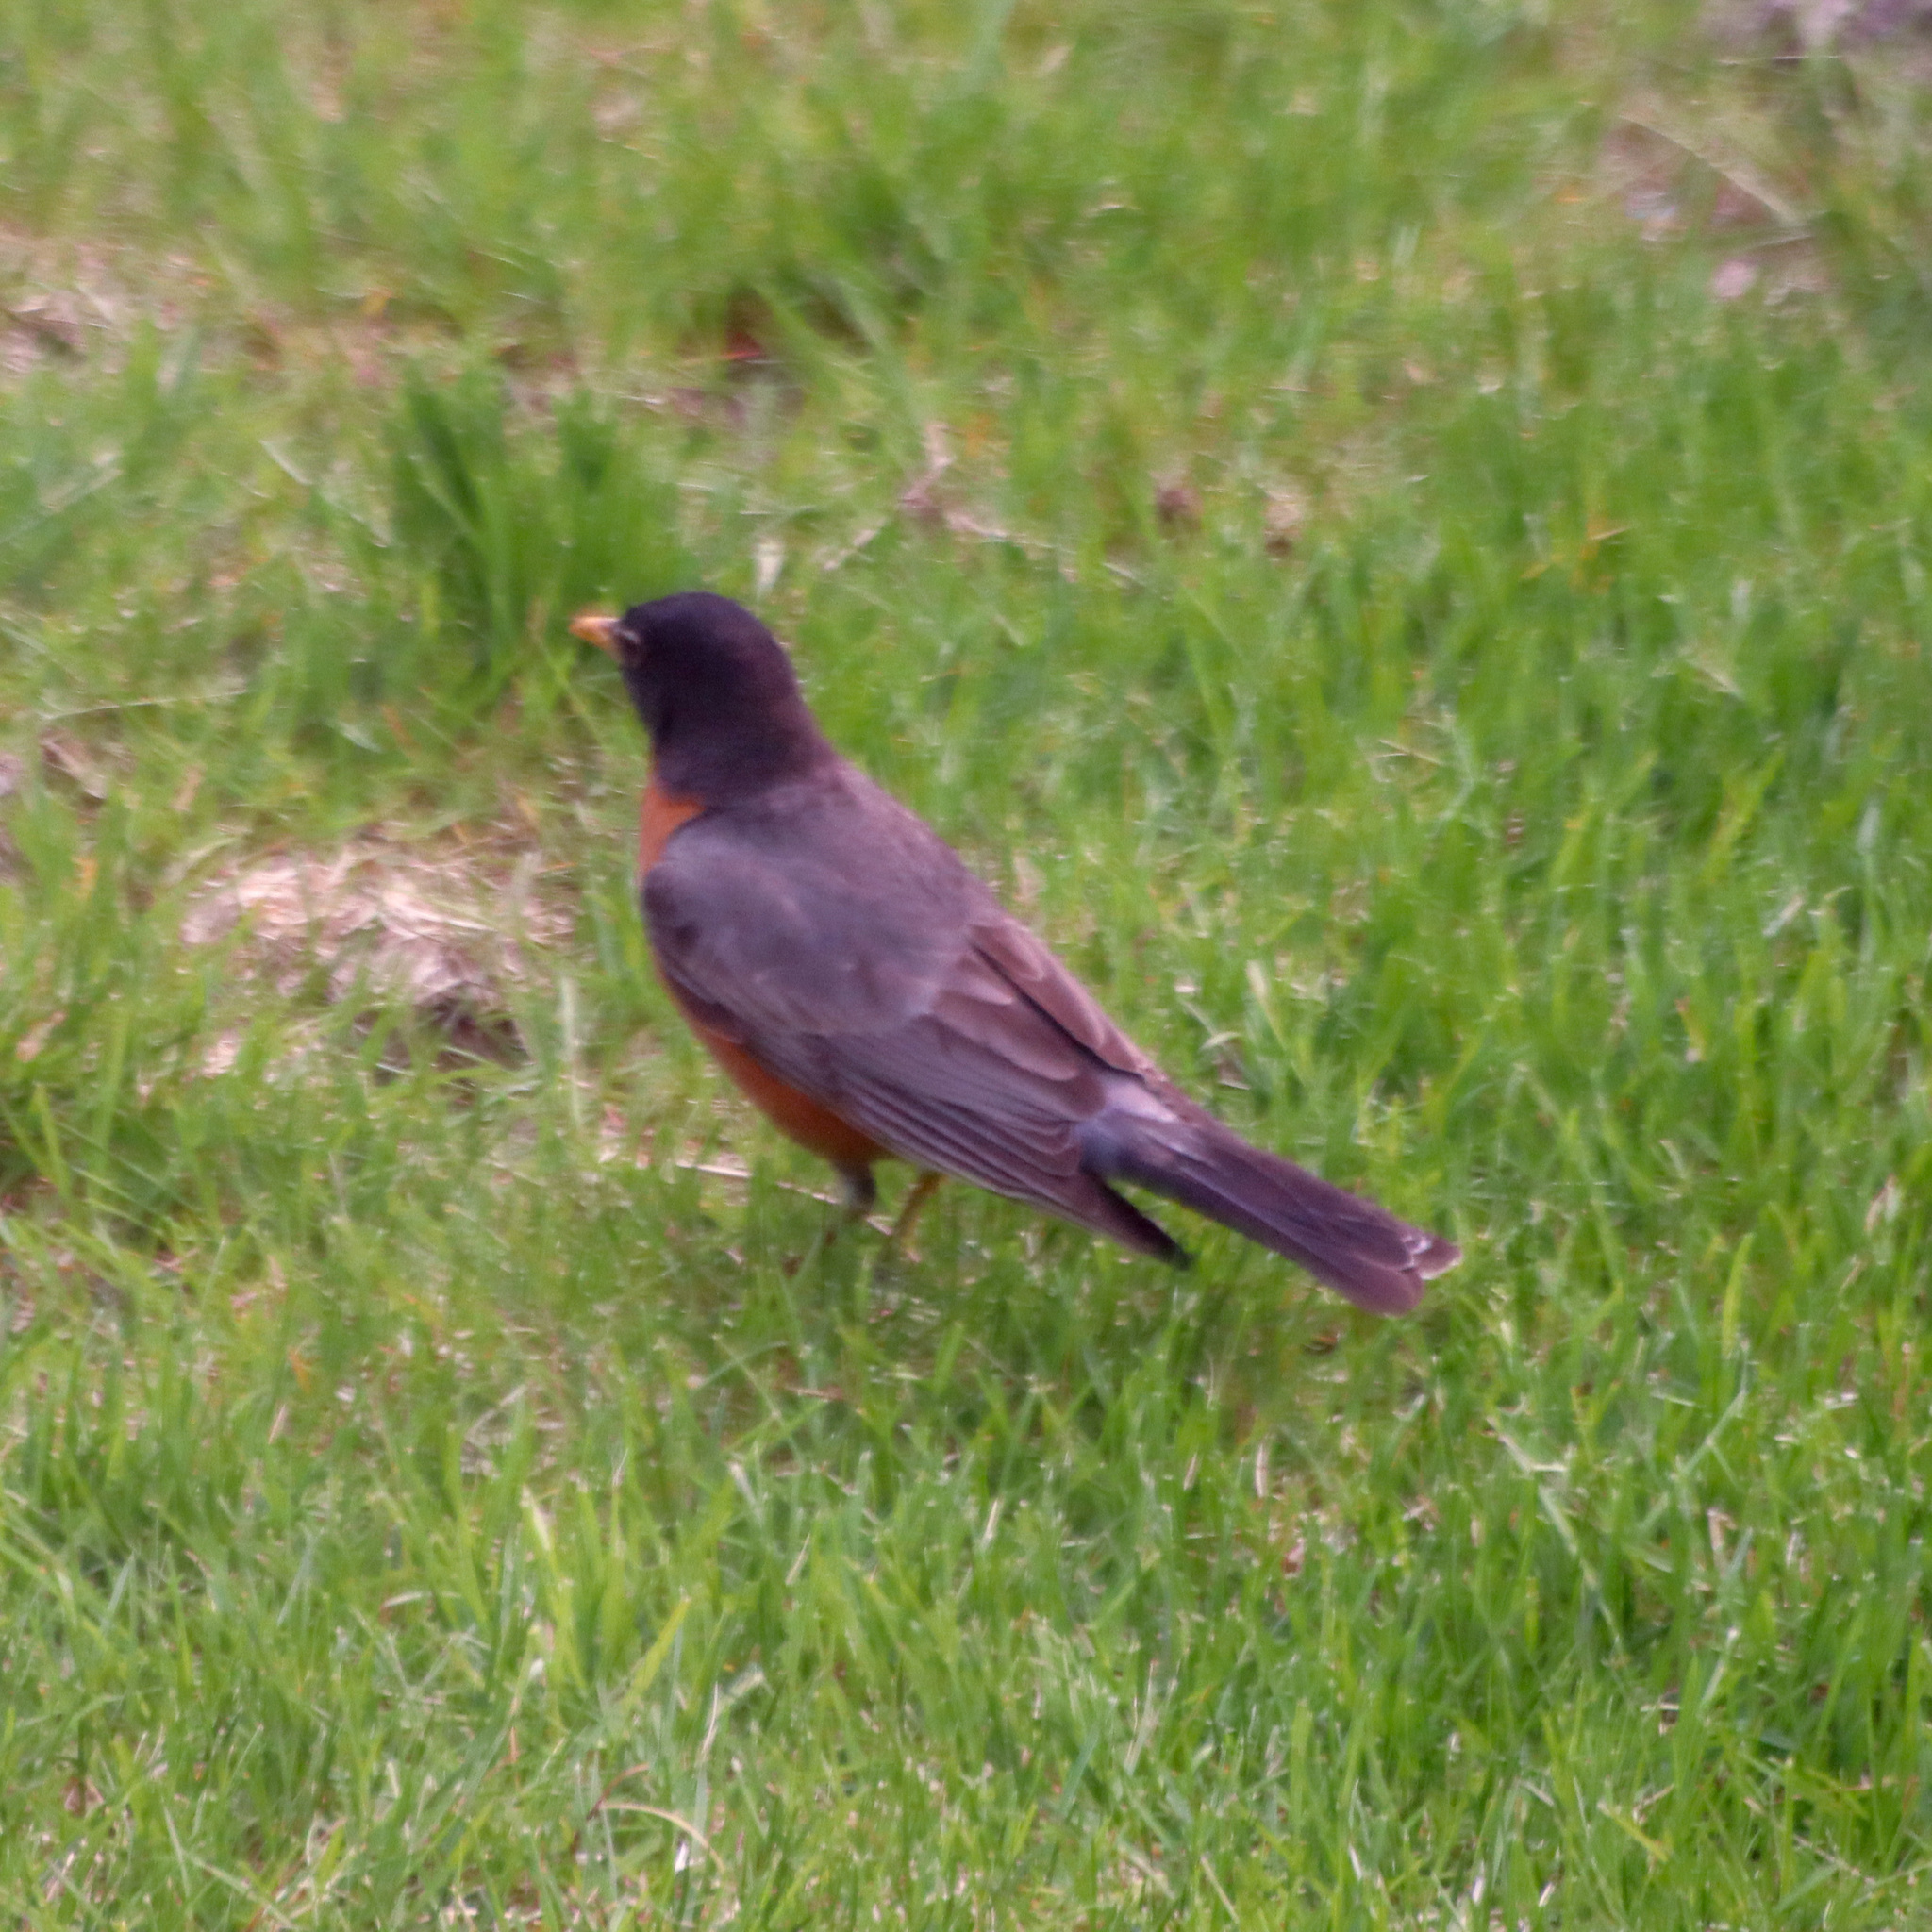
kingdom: Animalia
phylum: Chordata
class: Aves
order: Passeriformes
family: Turdidae
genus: Turdus
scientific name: Turdus migratorius
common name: American robin
